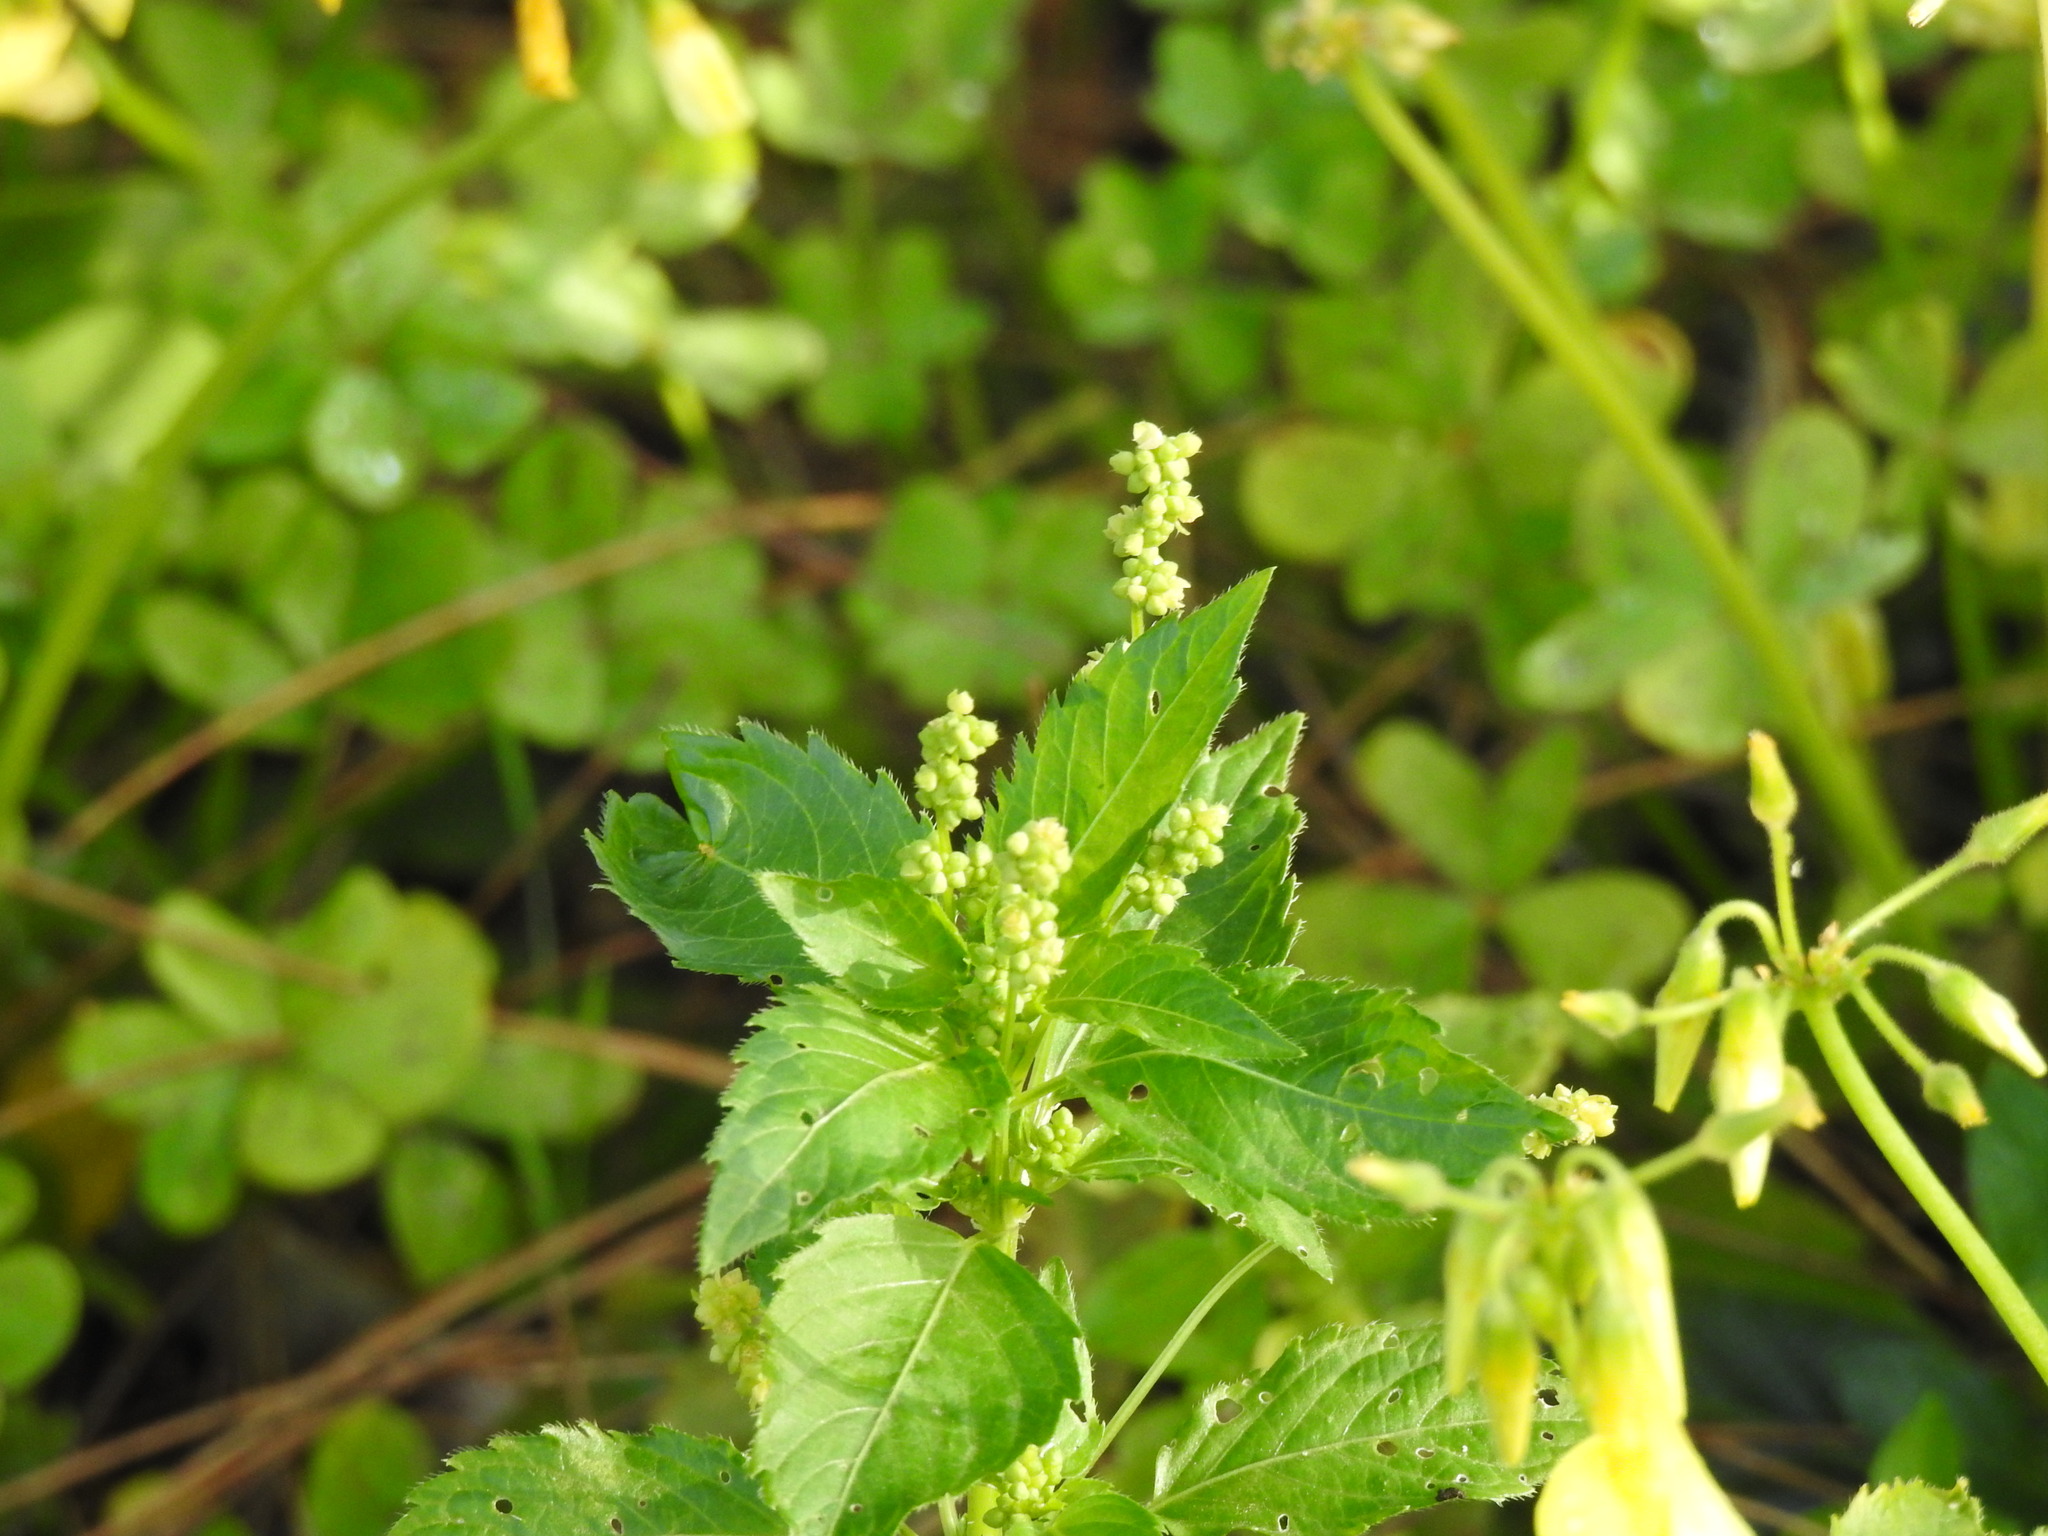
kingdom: Plantae
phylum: Tracheophyta
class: Magnoliopsida
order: Malpighiales
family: Euphorbiaceae
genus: Mercurialis
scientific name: Mercurialis annua
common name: Annual mercury
